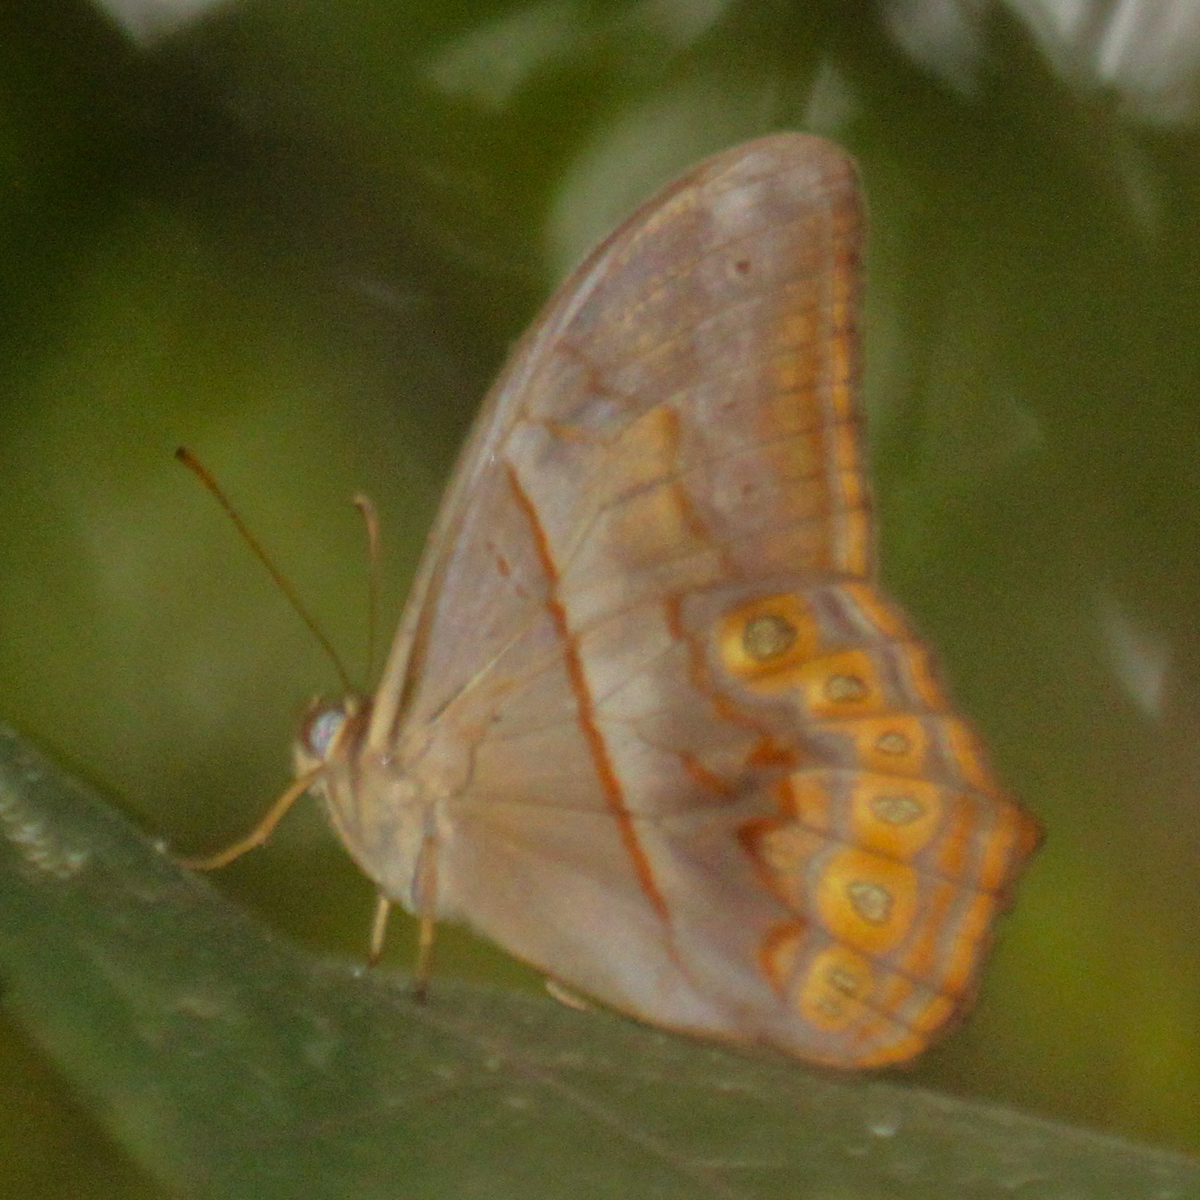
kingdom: Animalia
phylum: Arthropoda
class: Insecta
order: Lepidoptera
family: Nymphalidae
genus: Lethe
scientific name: Lethe minerva
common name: Banded red forester
